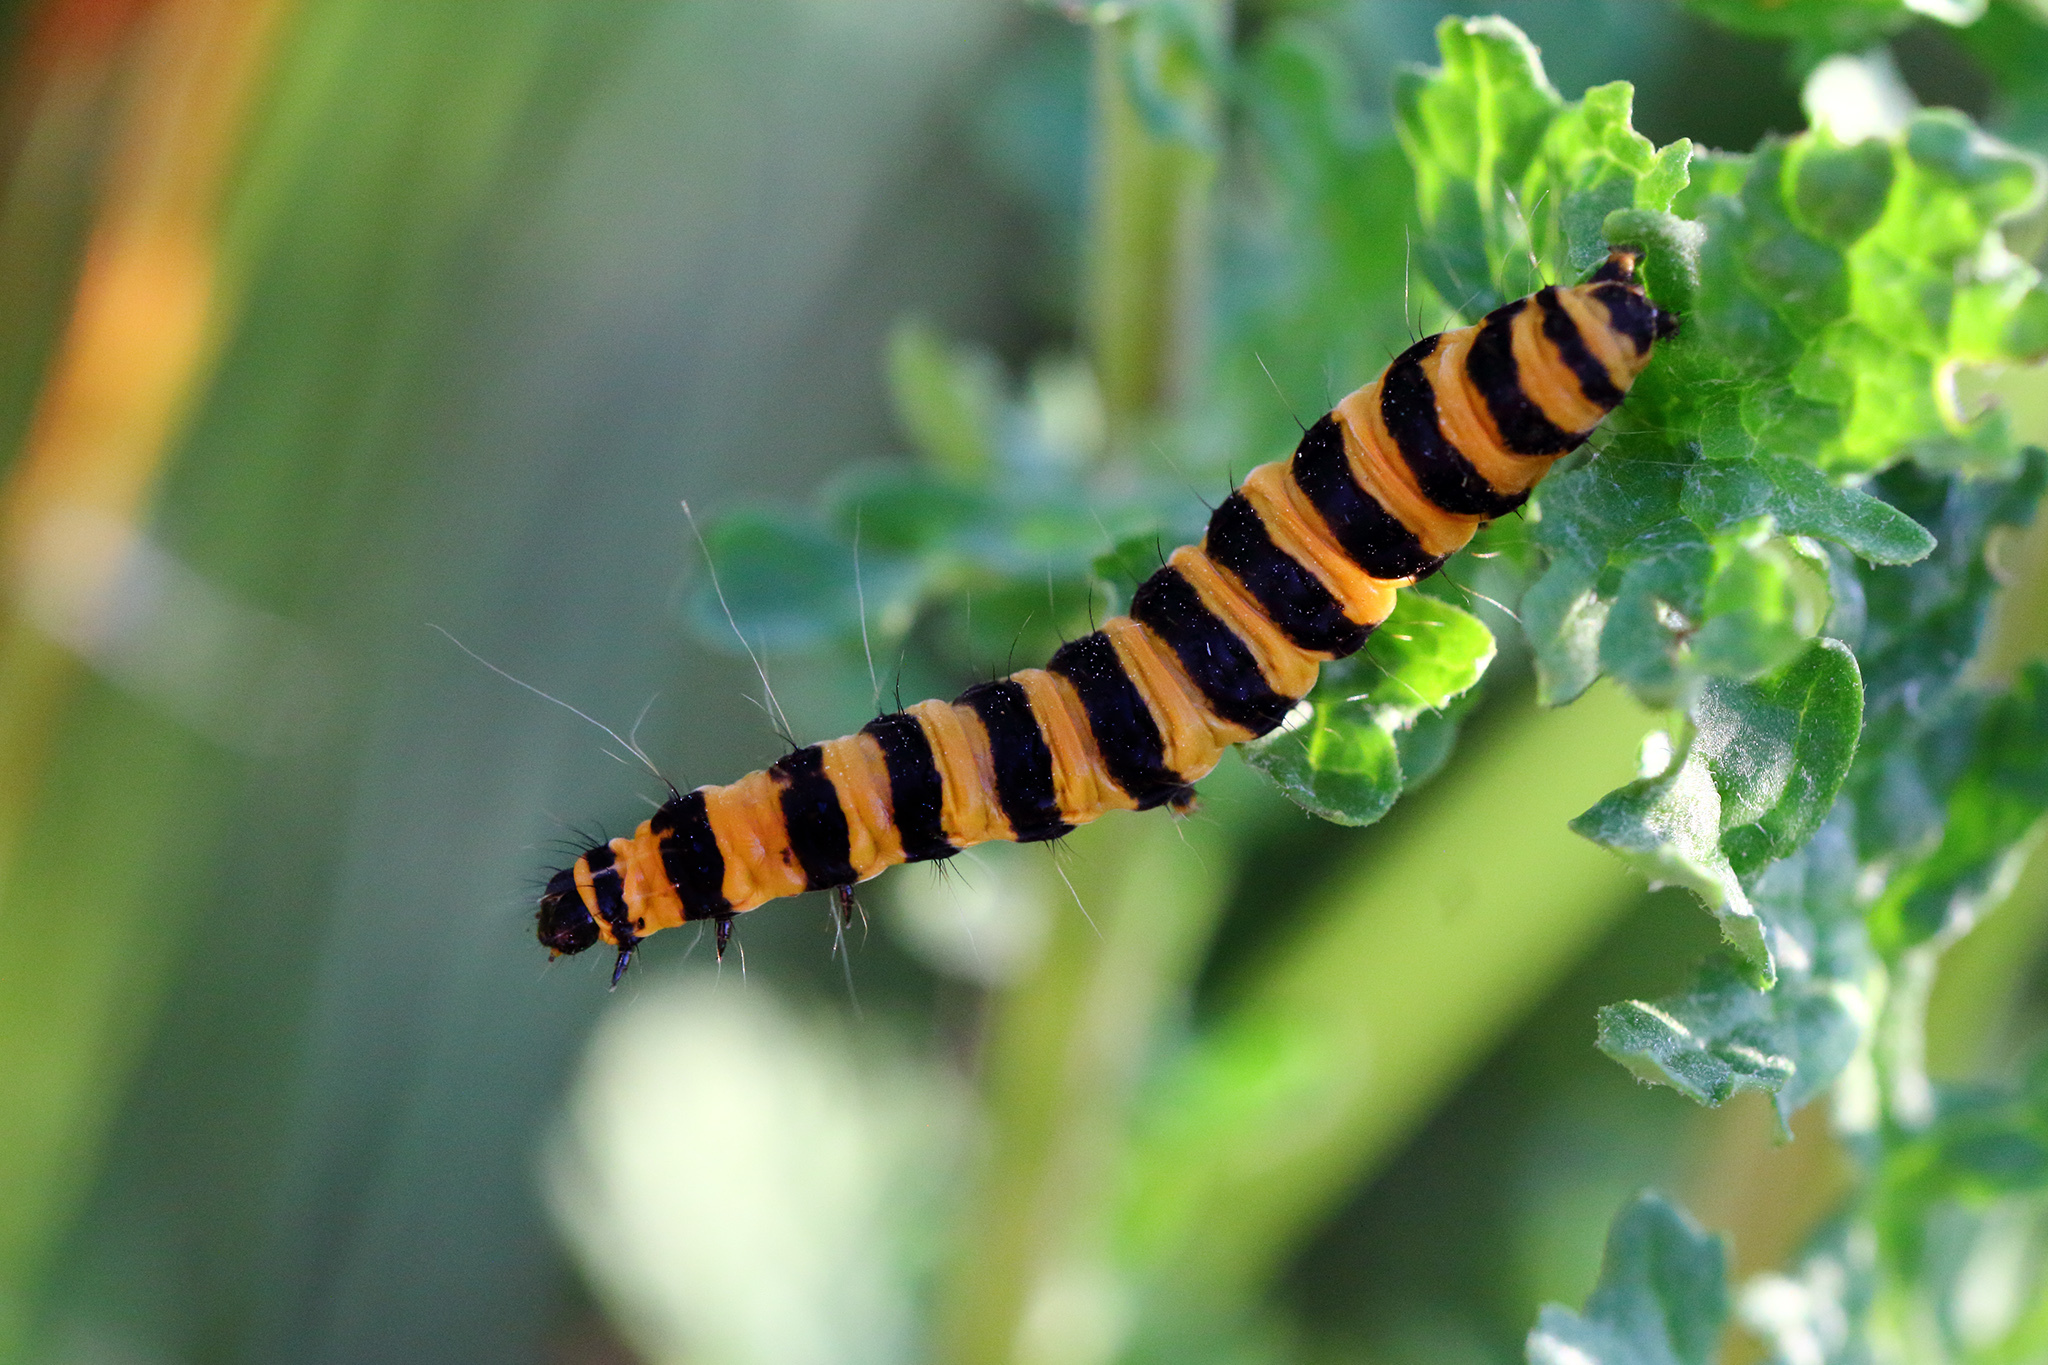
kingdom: Animalia
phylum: Arthropoda
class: Insecta
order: Lepidoptera
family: Erebidae
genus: Tyria
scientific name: Tyria jacobaeae
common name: Cinnabar
